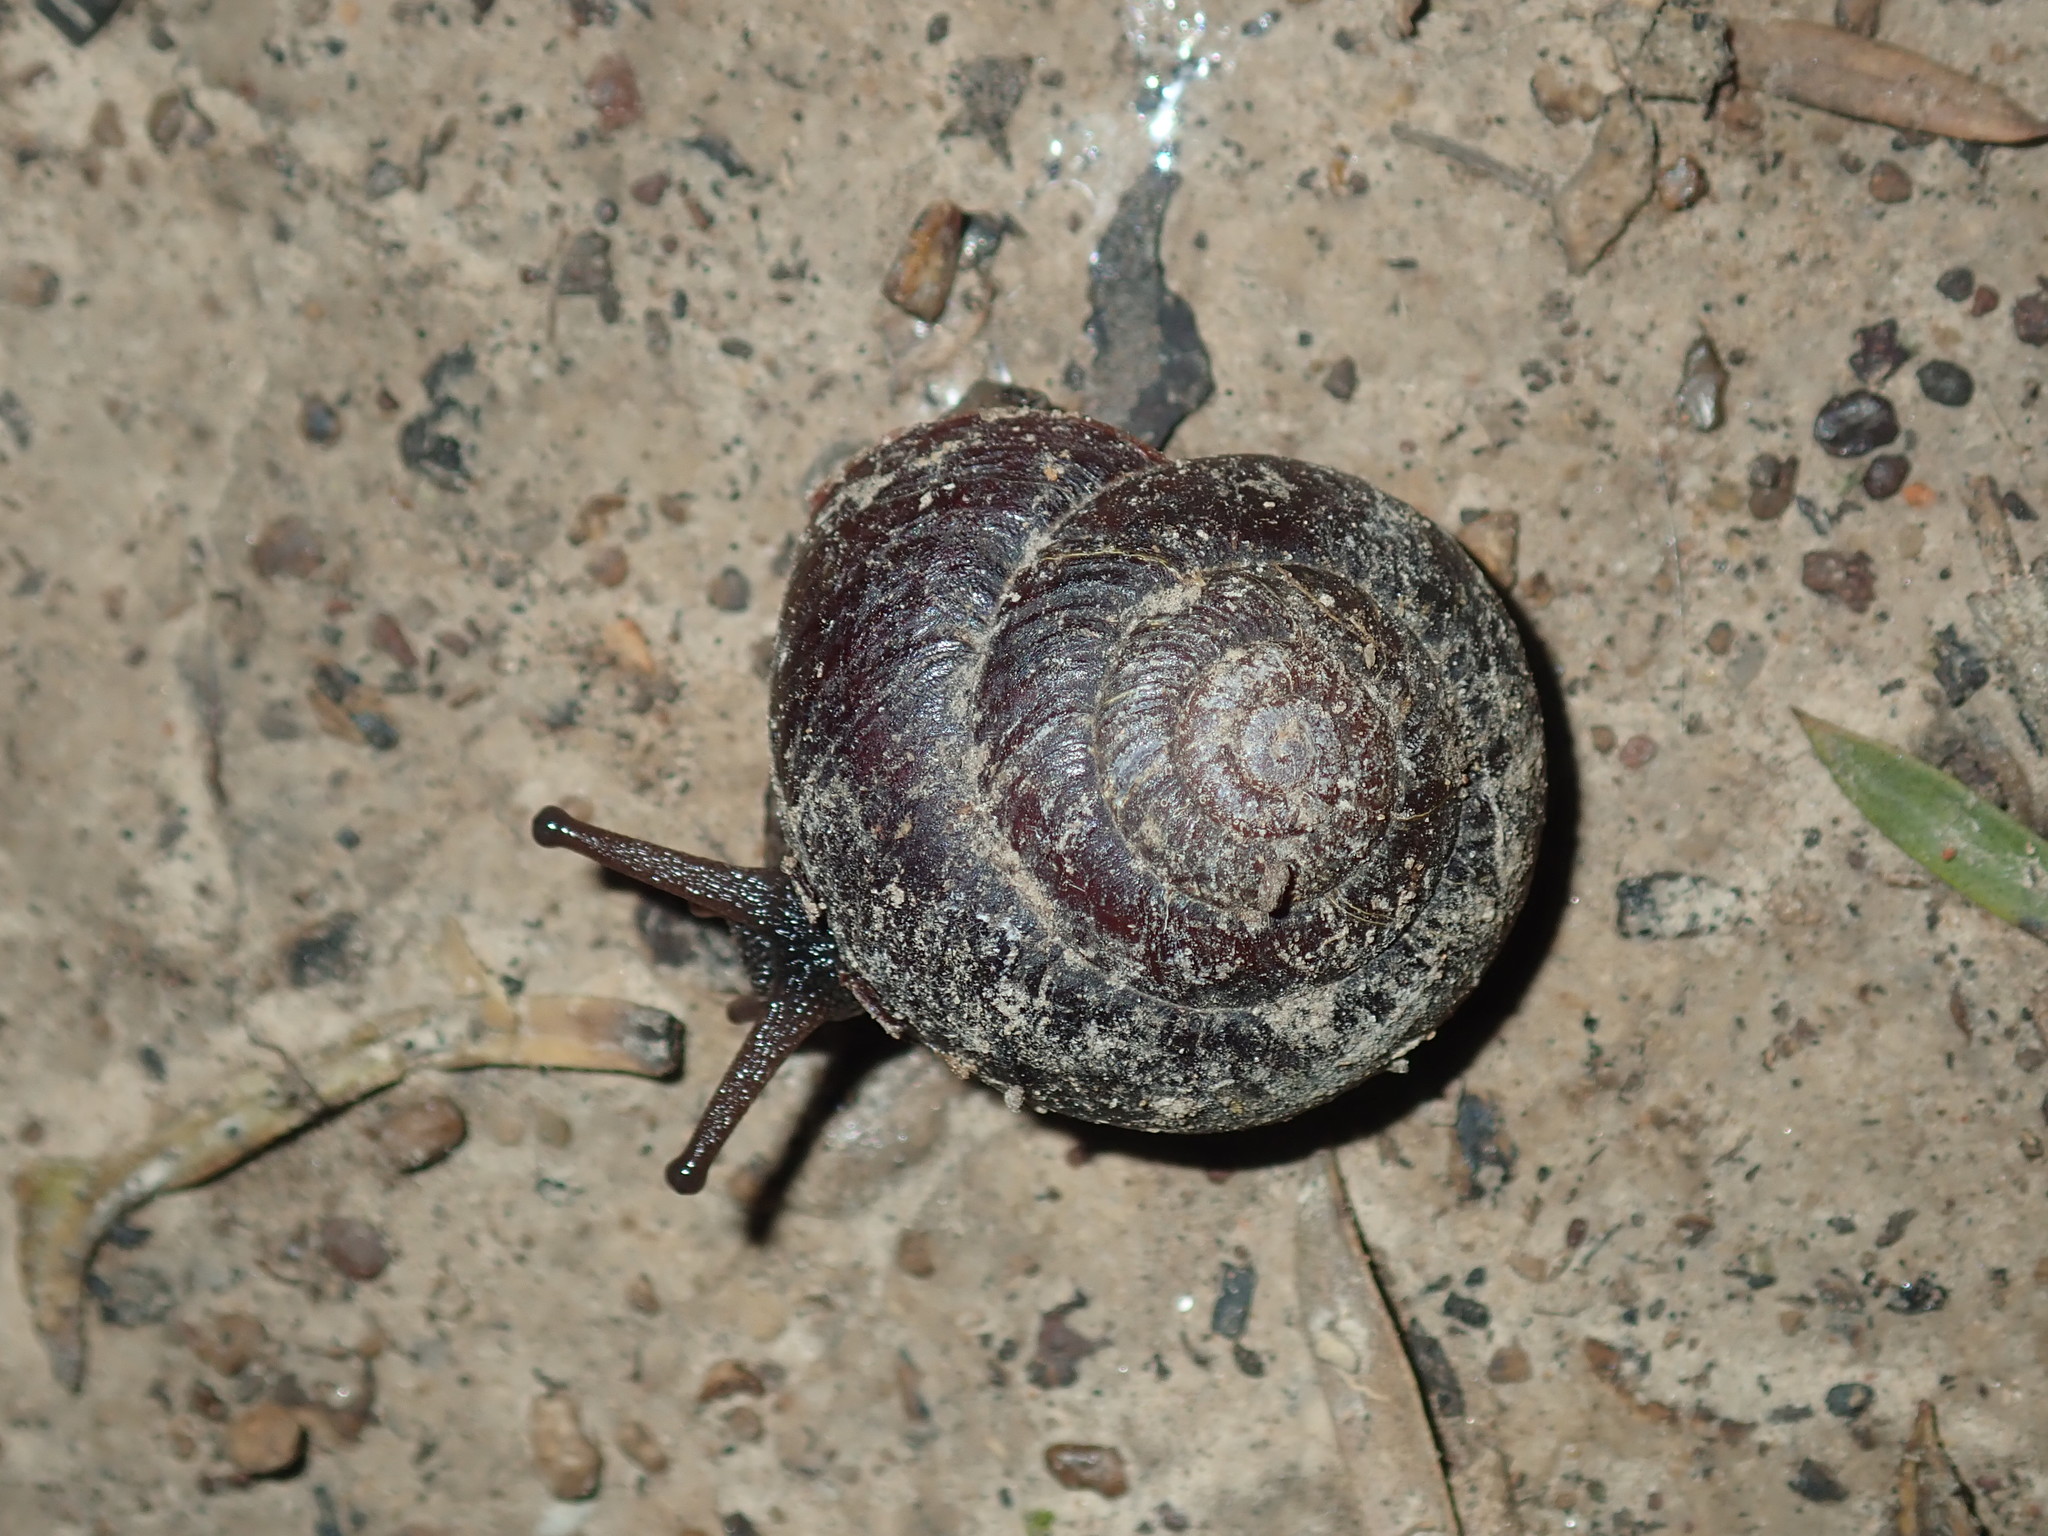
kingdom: Animalia
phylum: Mollusca
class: Gastropoda
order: Stylommatophora
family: Camaenidae
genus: Sauroconcha
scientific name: Sauroconcha sheai
